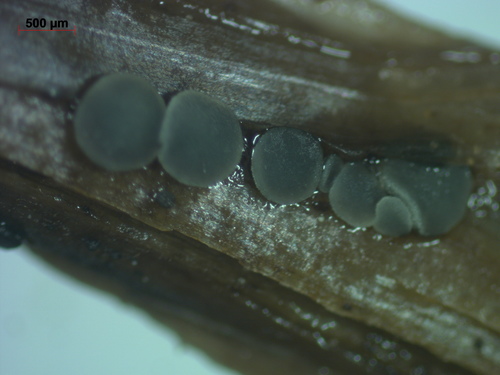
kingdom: Fungi
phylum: Ascomycota
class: Leotiomycetes
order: Helotiales
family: Mollisiaceae
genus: Mollisia
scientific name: Mollisia
